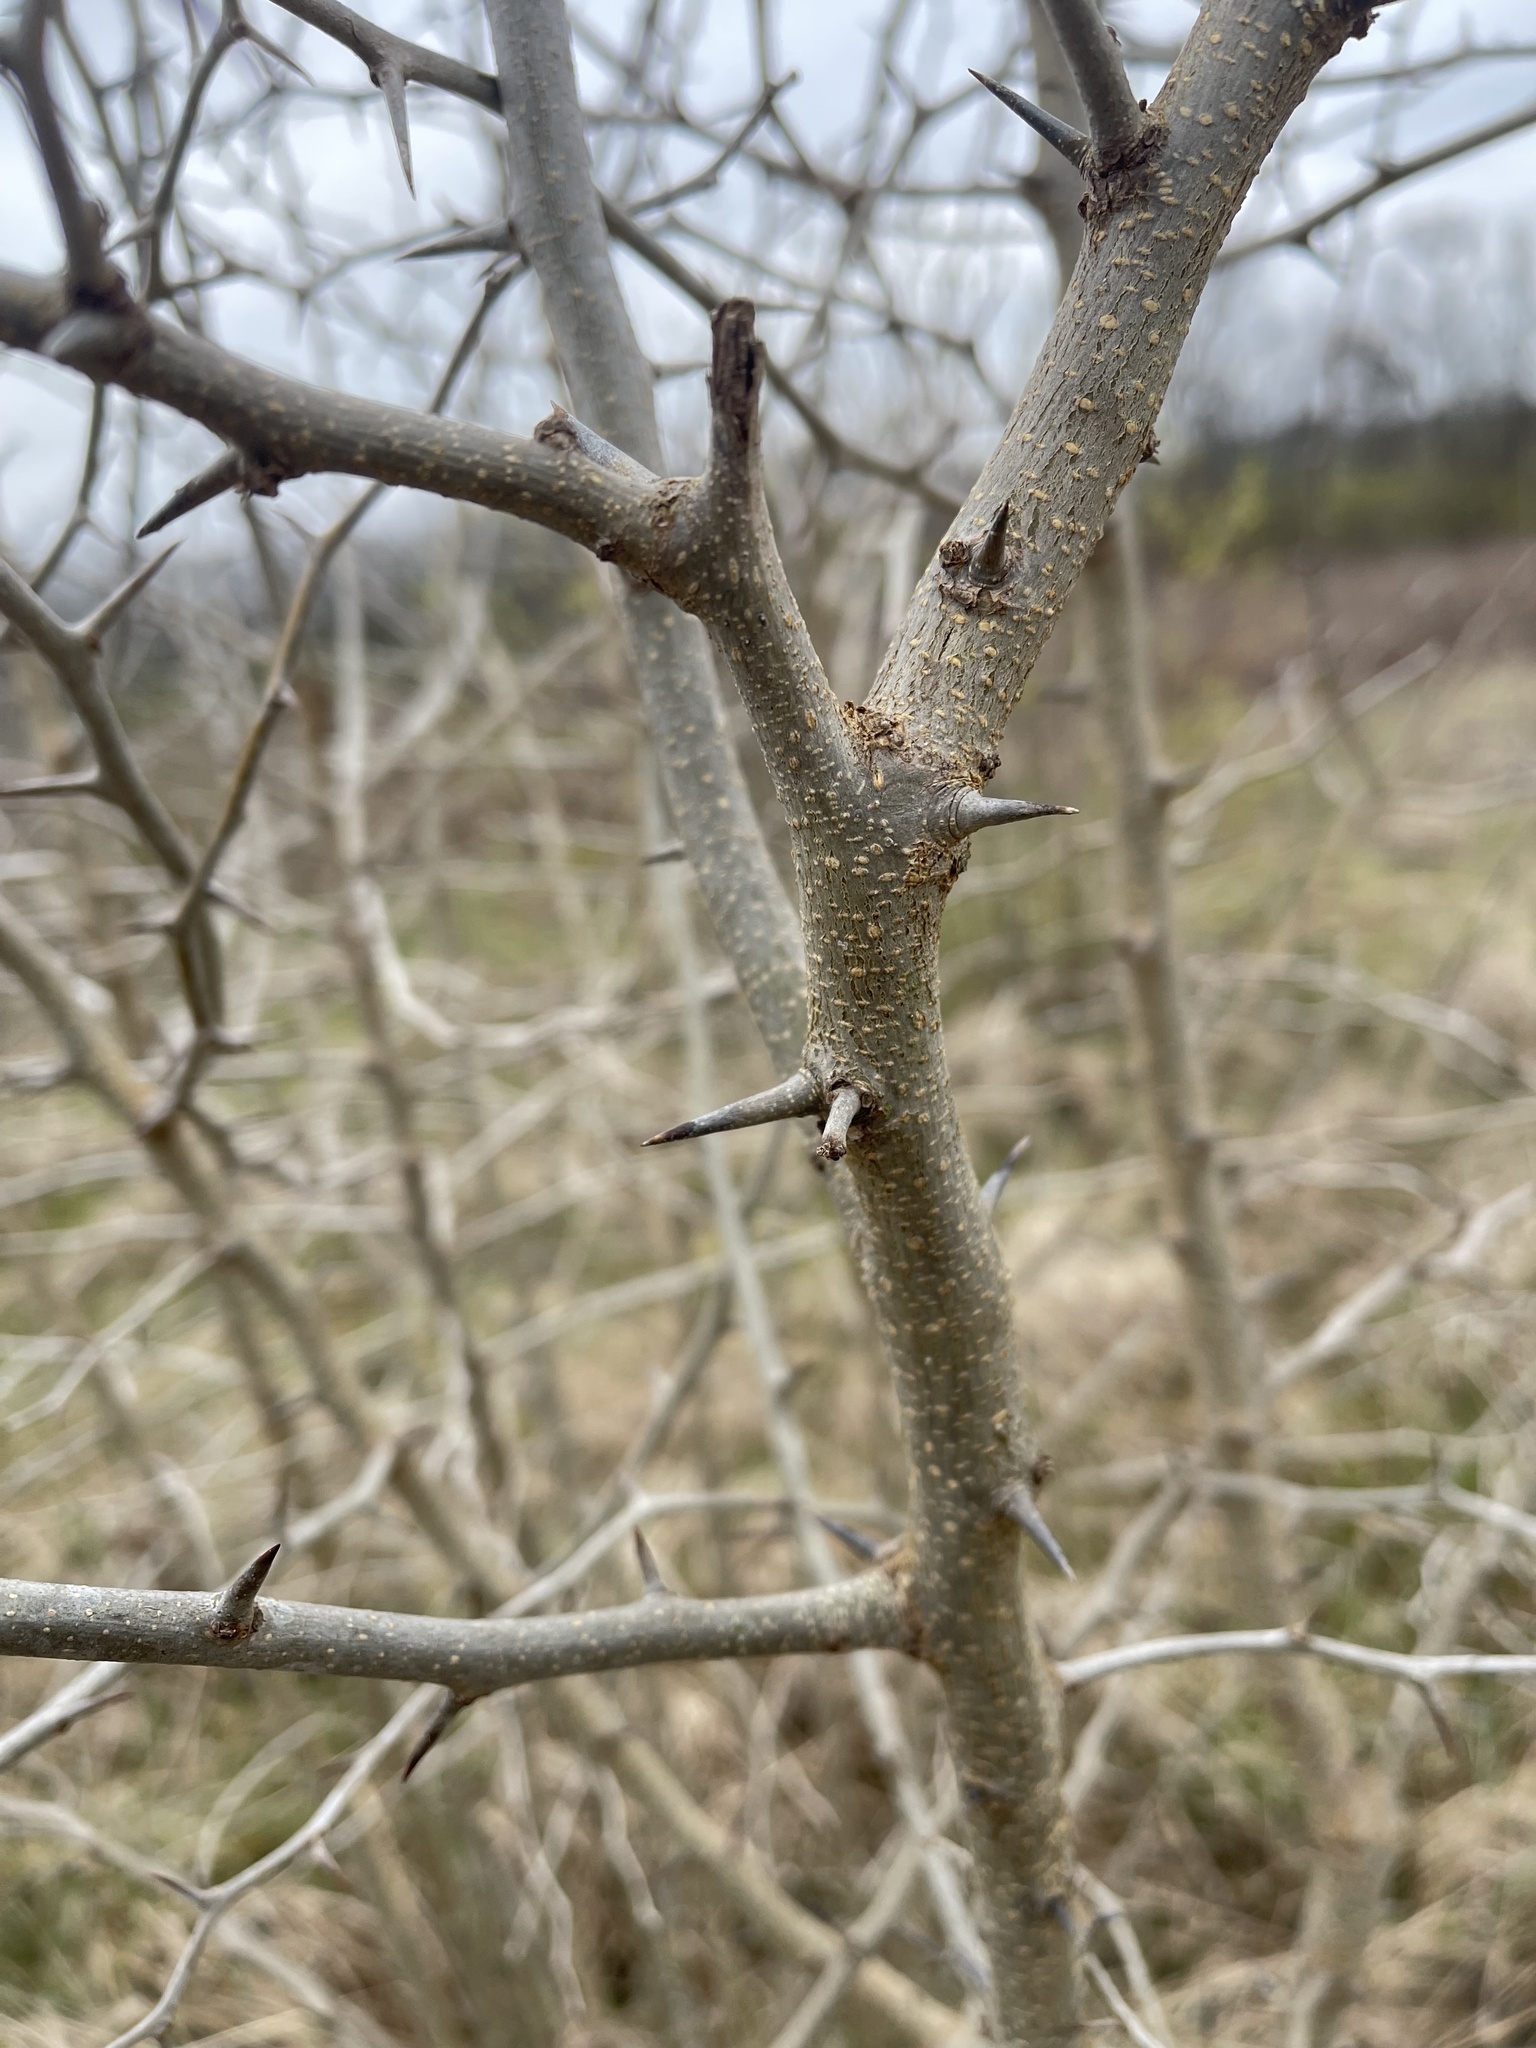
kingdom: Plantae
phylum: Tracheophyta
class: Magnoliopsida
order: Rosales
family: Moraceae
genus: Maclura
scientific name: Maclura pomifera
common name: Osage-orange
